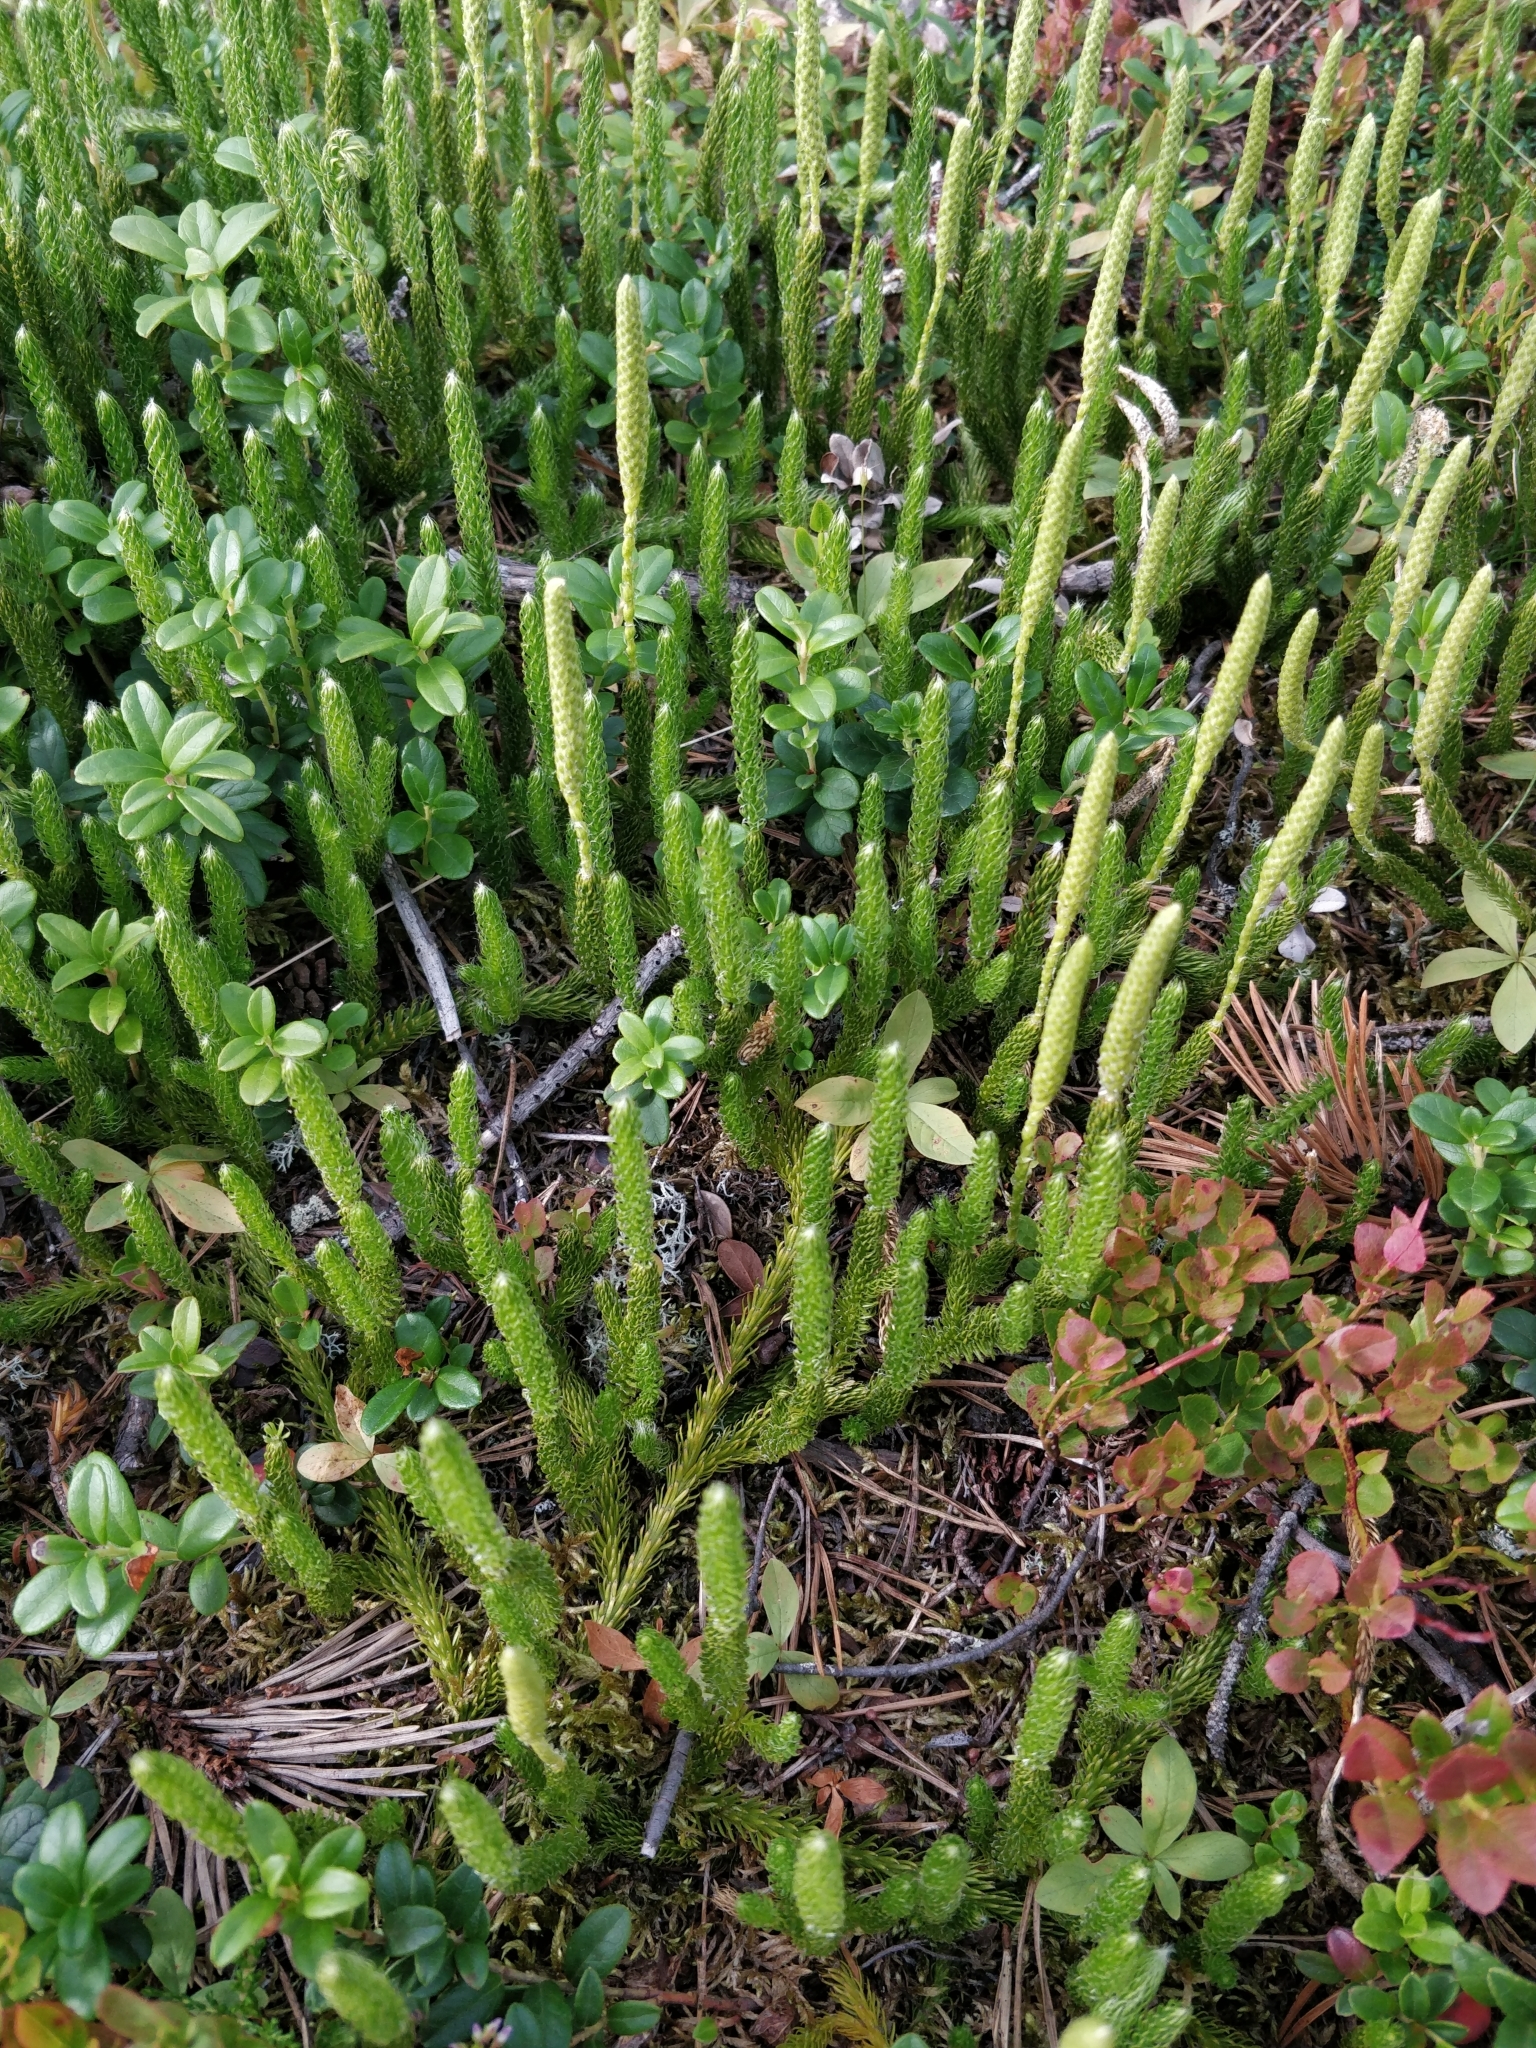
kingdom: Plantae
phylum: Tracheophyta
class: Lycopodiopsida
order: Lycopodiales
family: Lycopodiaceae
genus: Lycopodium
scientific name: Lycopodium lagopus
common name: One-cone clubmoss
